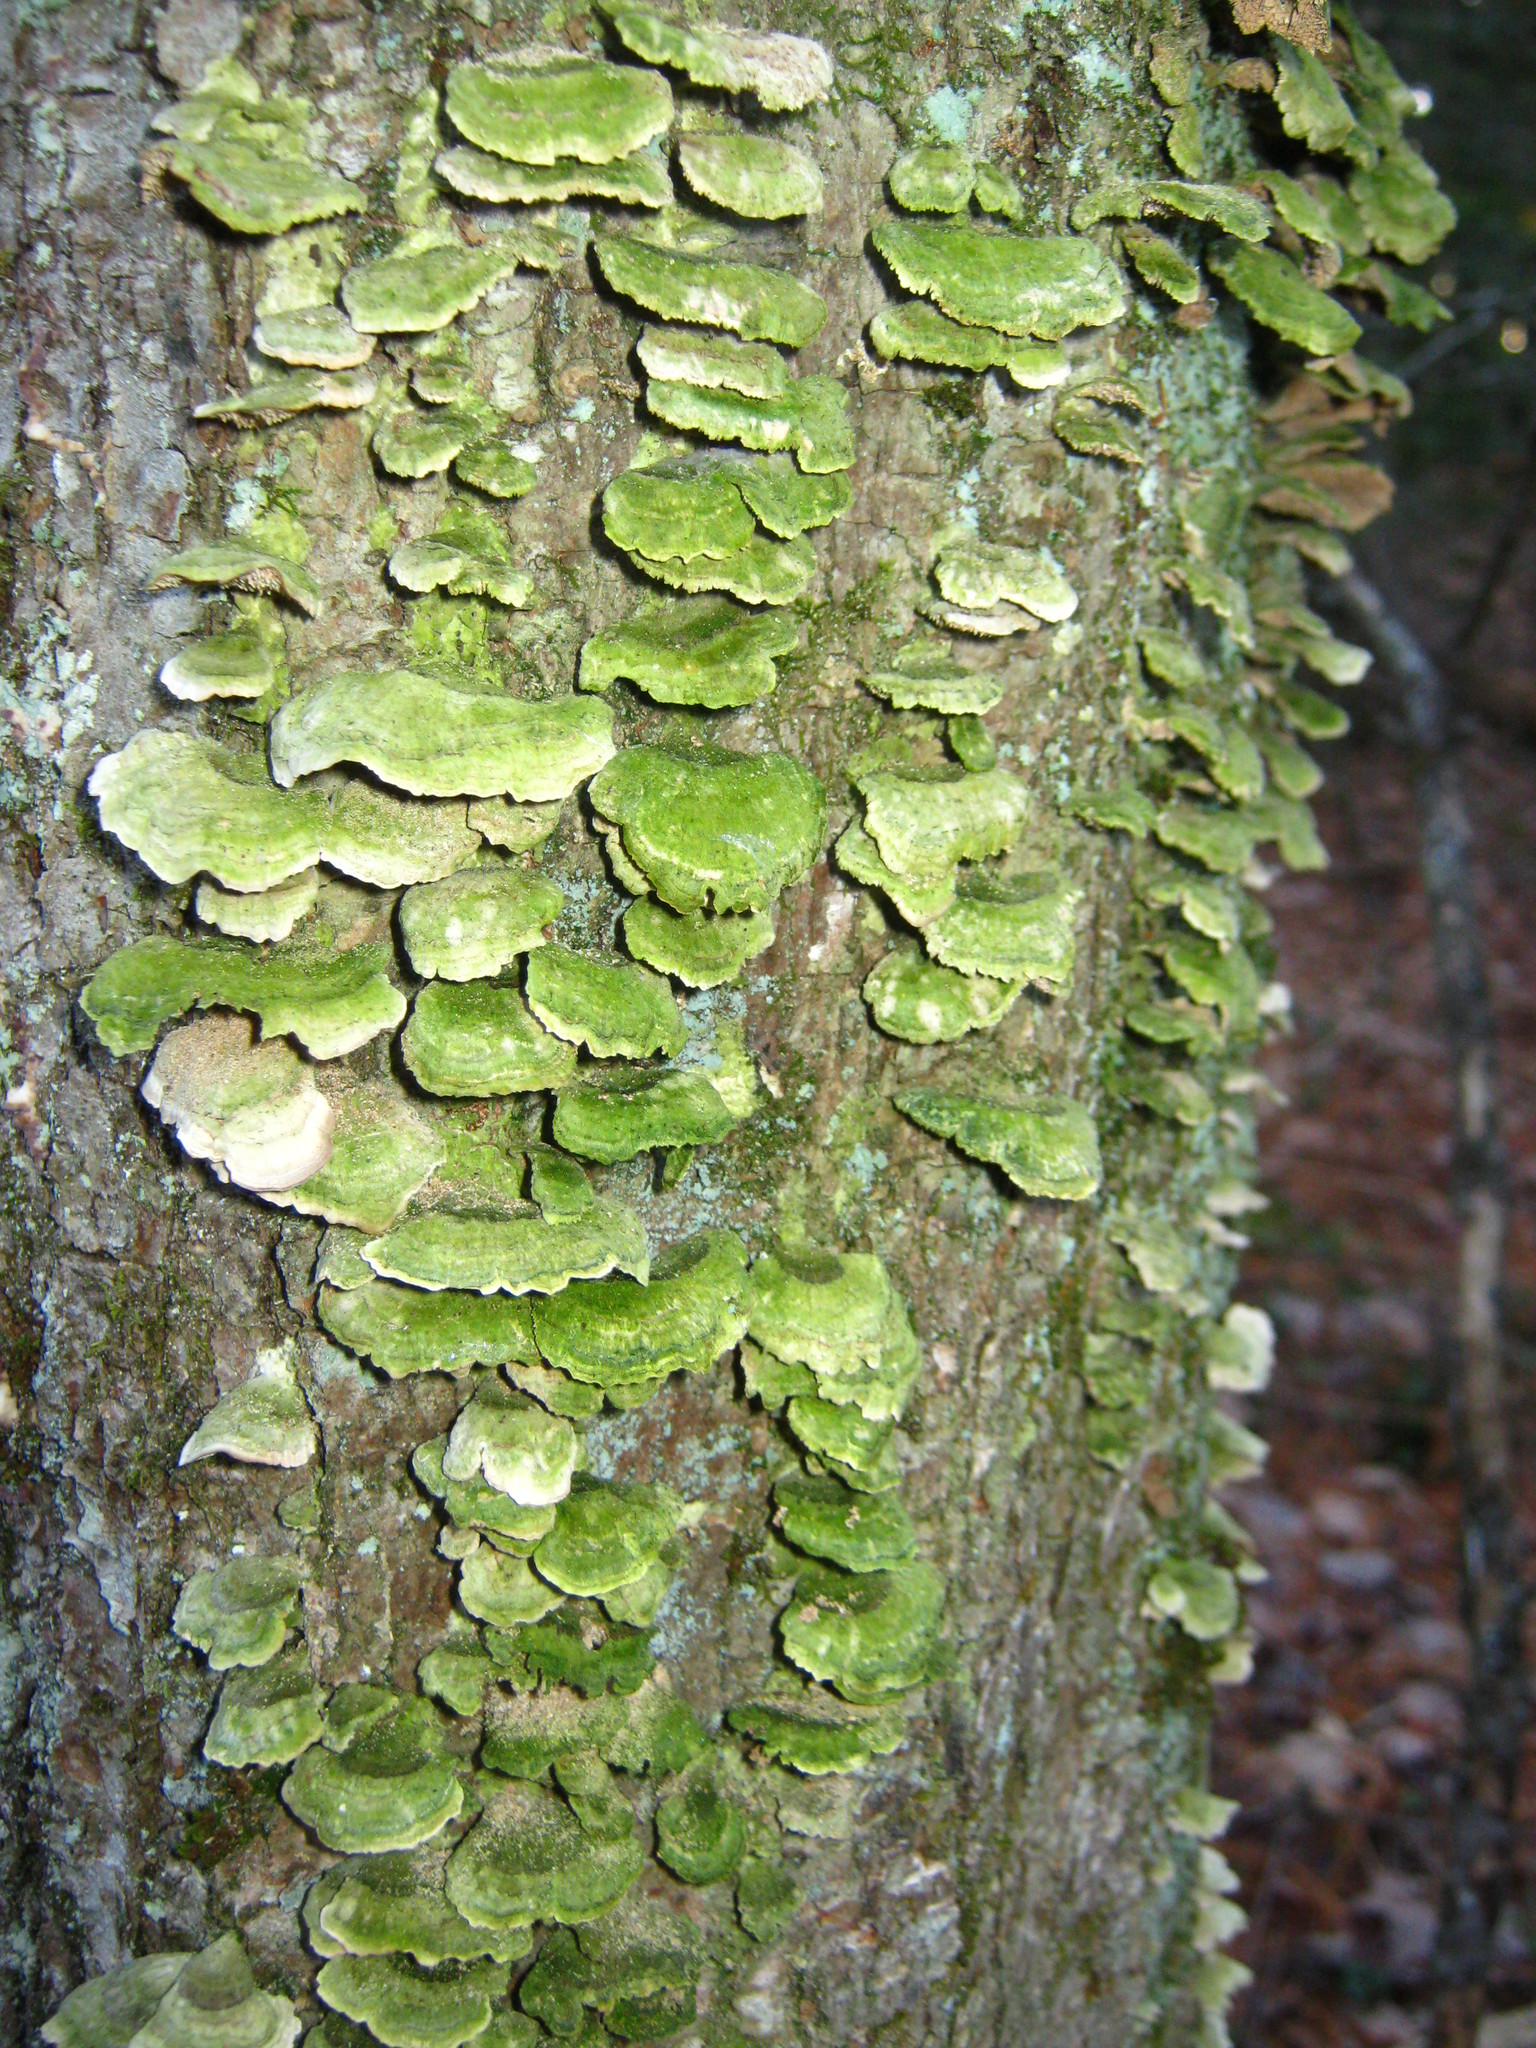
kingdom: Fungi
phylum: Basidiomycota
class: Agaricomycetes
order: Hymenochaetales
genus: Trichaptum
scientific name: Trichaptum biforme
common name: Violet-toothed polypore
